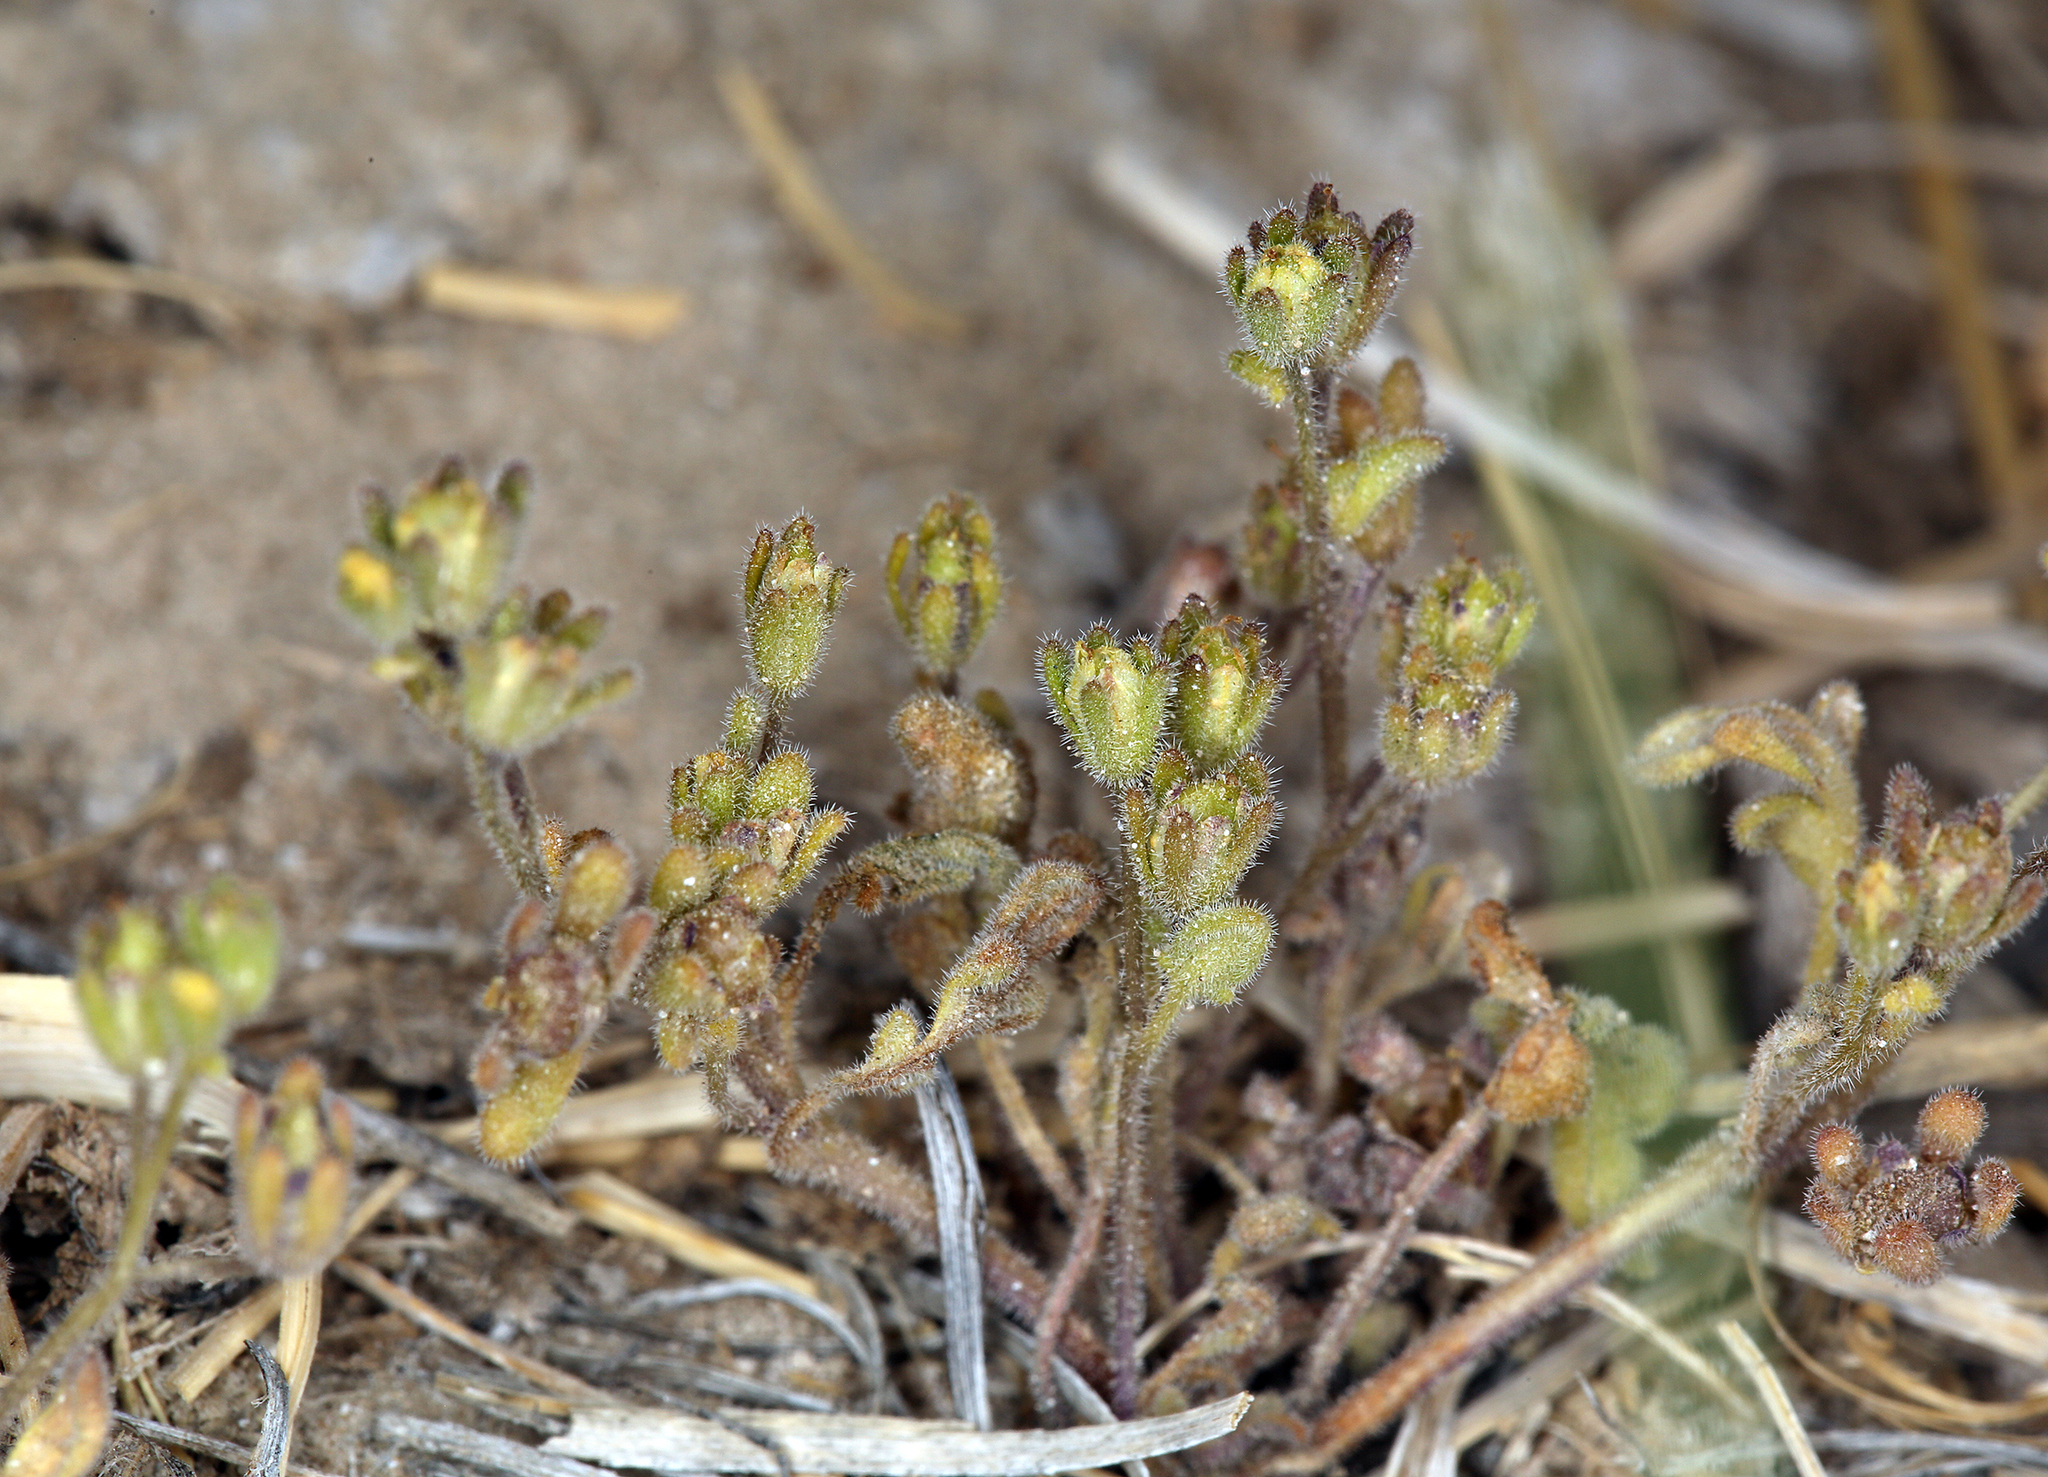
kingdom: Plantae
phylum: Tracheophyta
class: Magnoliopsida
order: Boraginales
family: Hydrophyllaceae
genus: Phacelia
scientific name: Phacelia inyoensis
